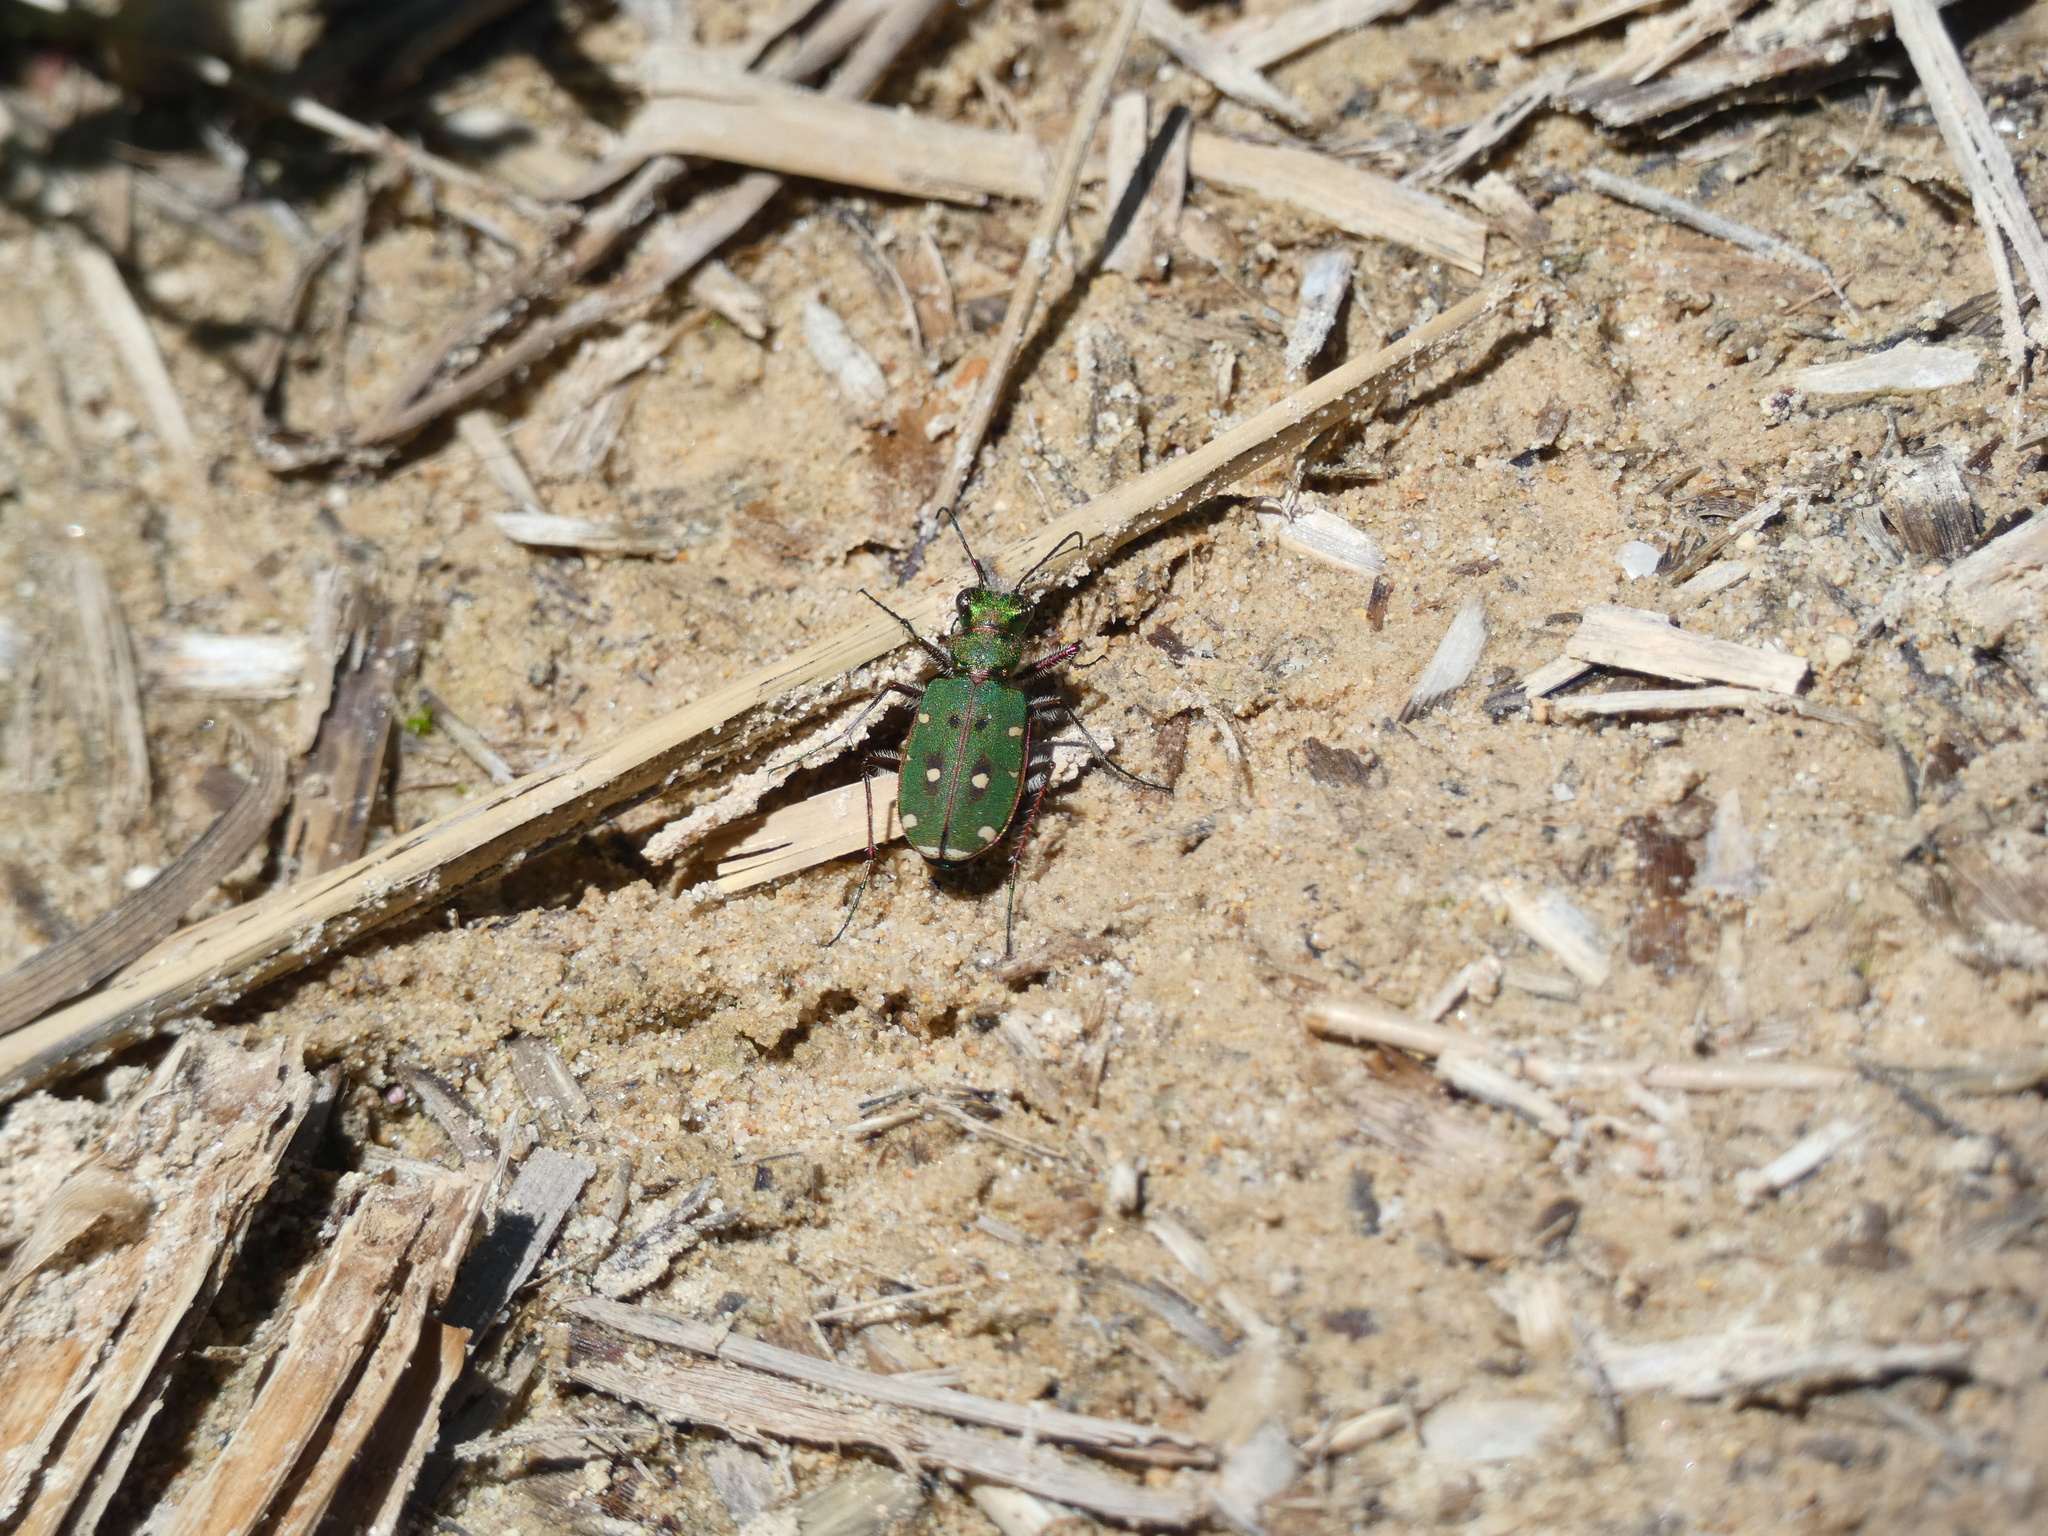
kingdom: Animalia
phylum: Arthropoda
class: Insecta
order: Coleoptera
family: Carabidae
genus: Cicindela
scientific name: Cicindela campestris
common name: Common tiger beetle
